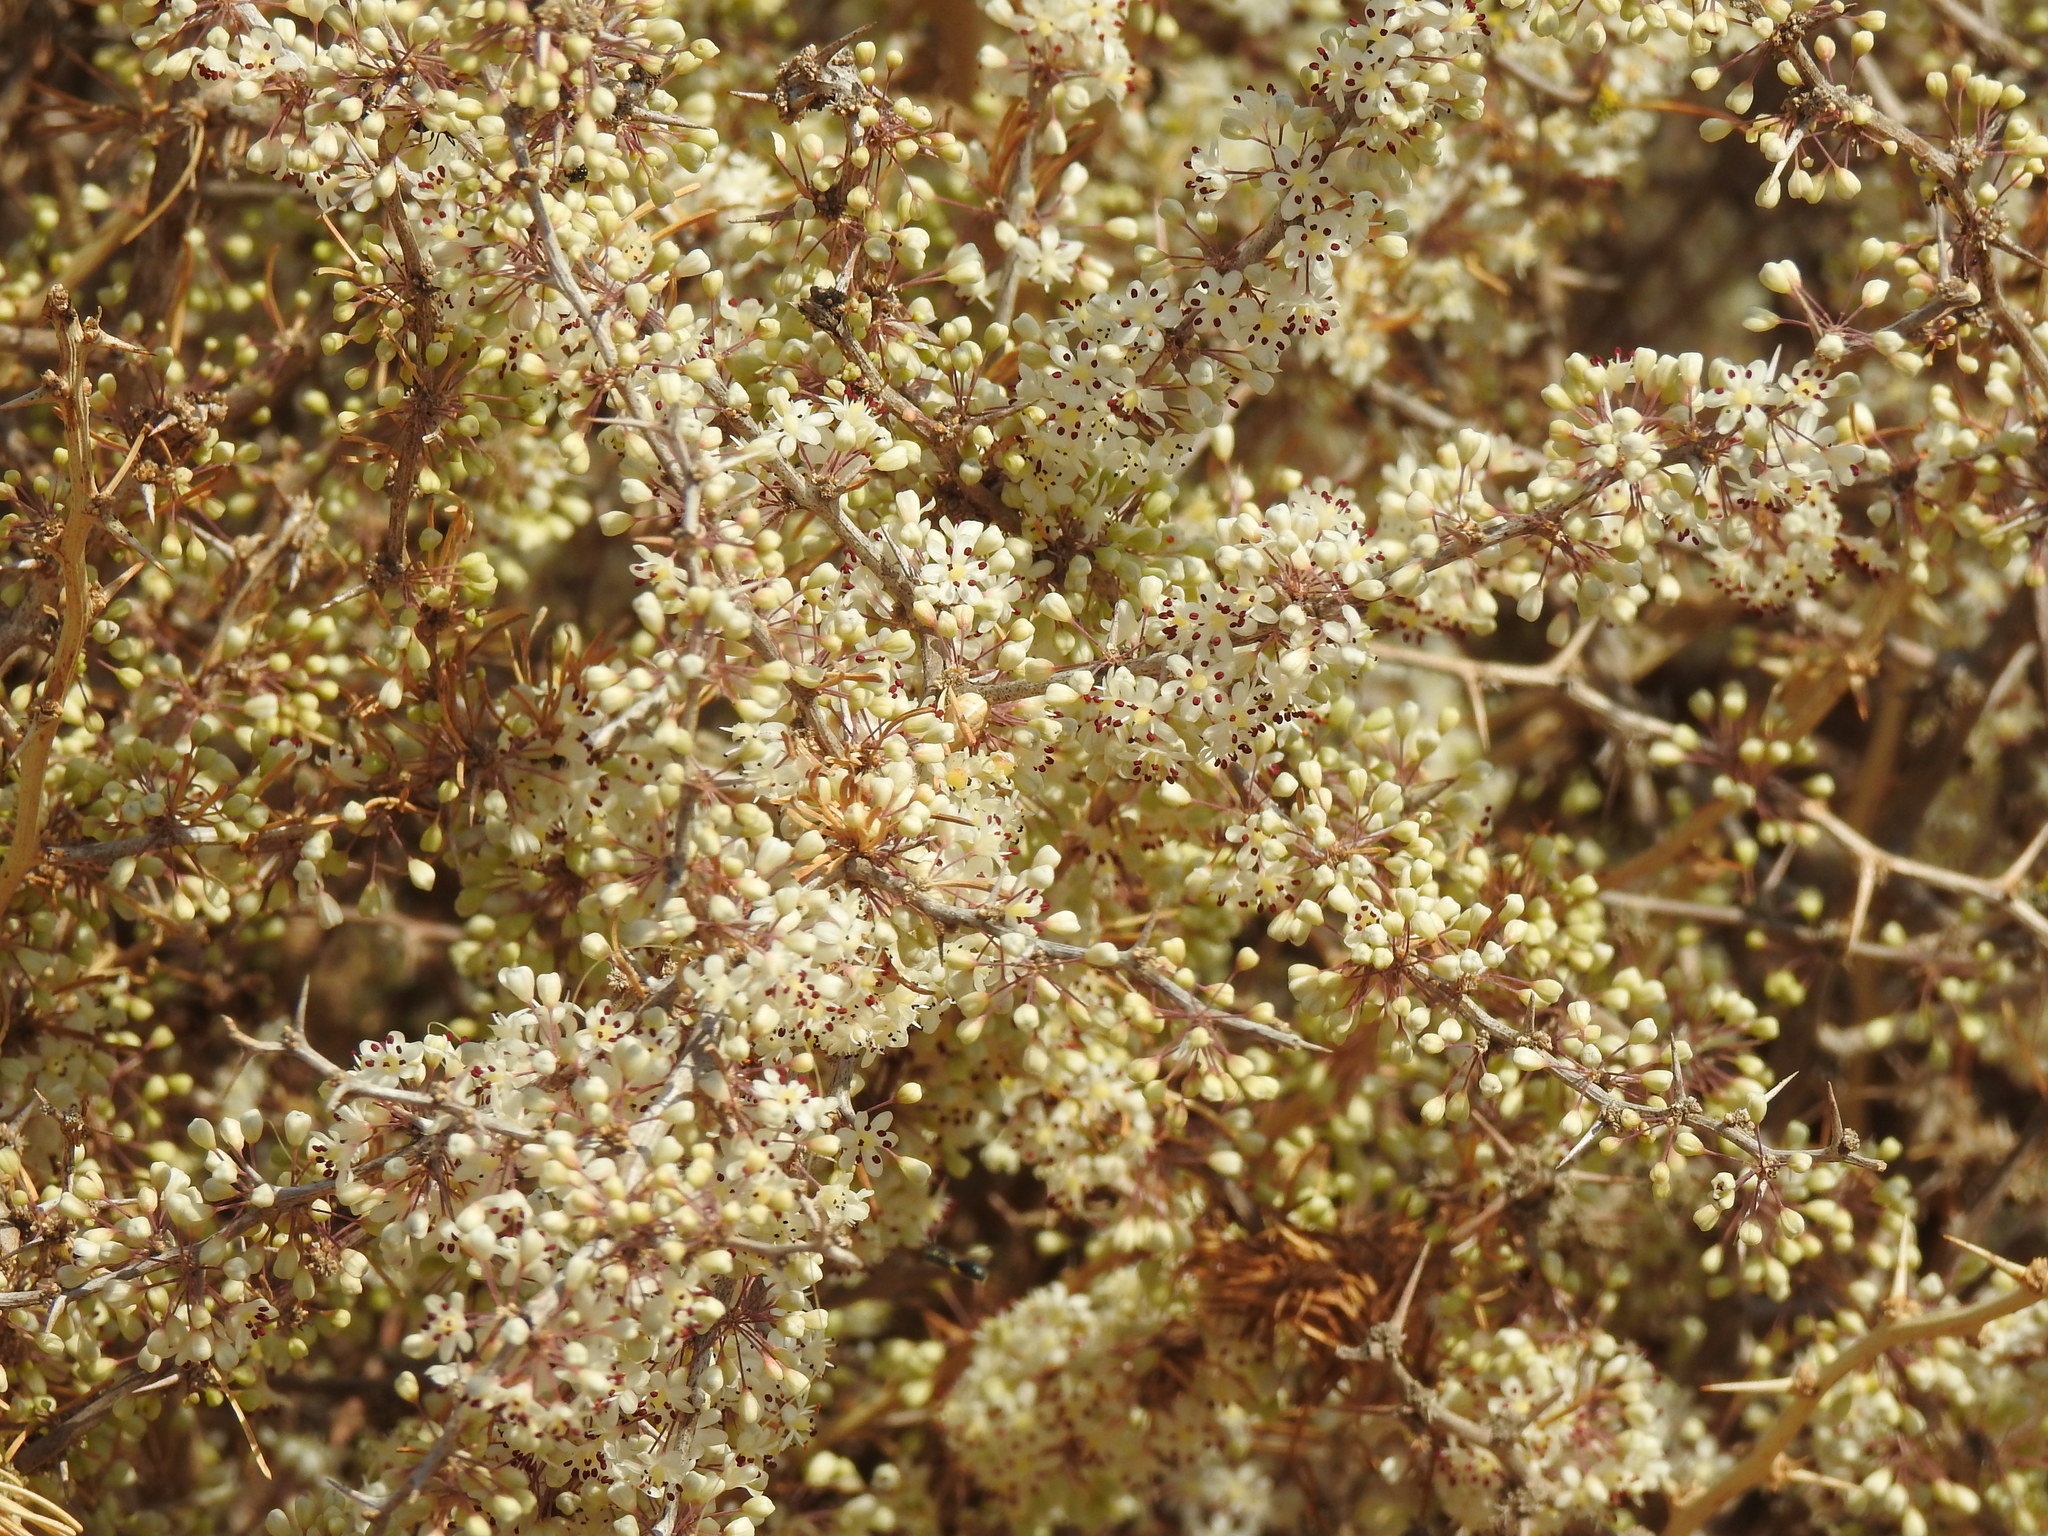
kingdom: Plantae
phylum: Tracheophyta
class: Liliopsida
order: Asparagales
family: Asparagaceae
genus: Asparagus
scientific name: Asparagus albus
